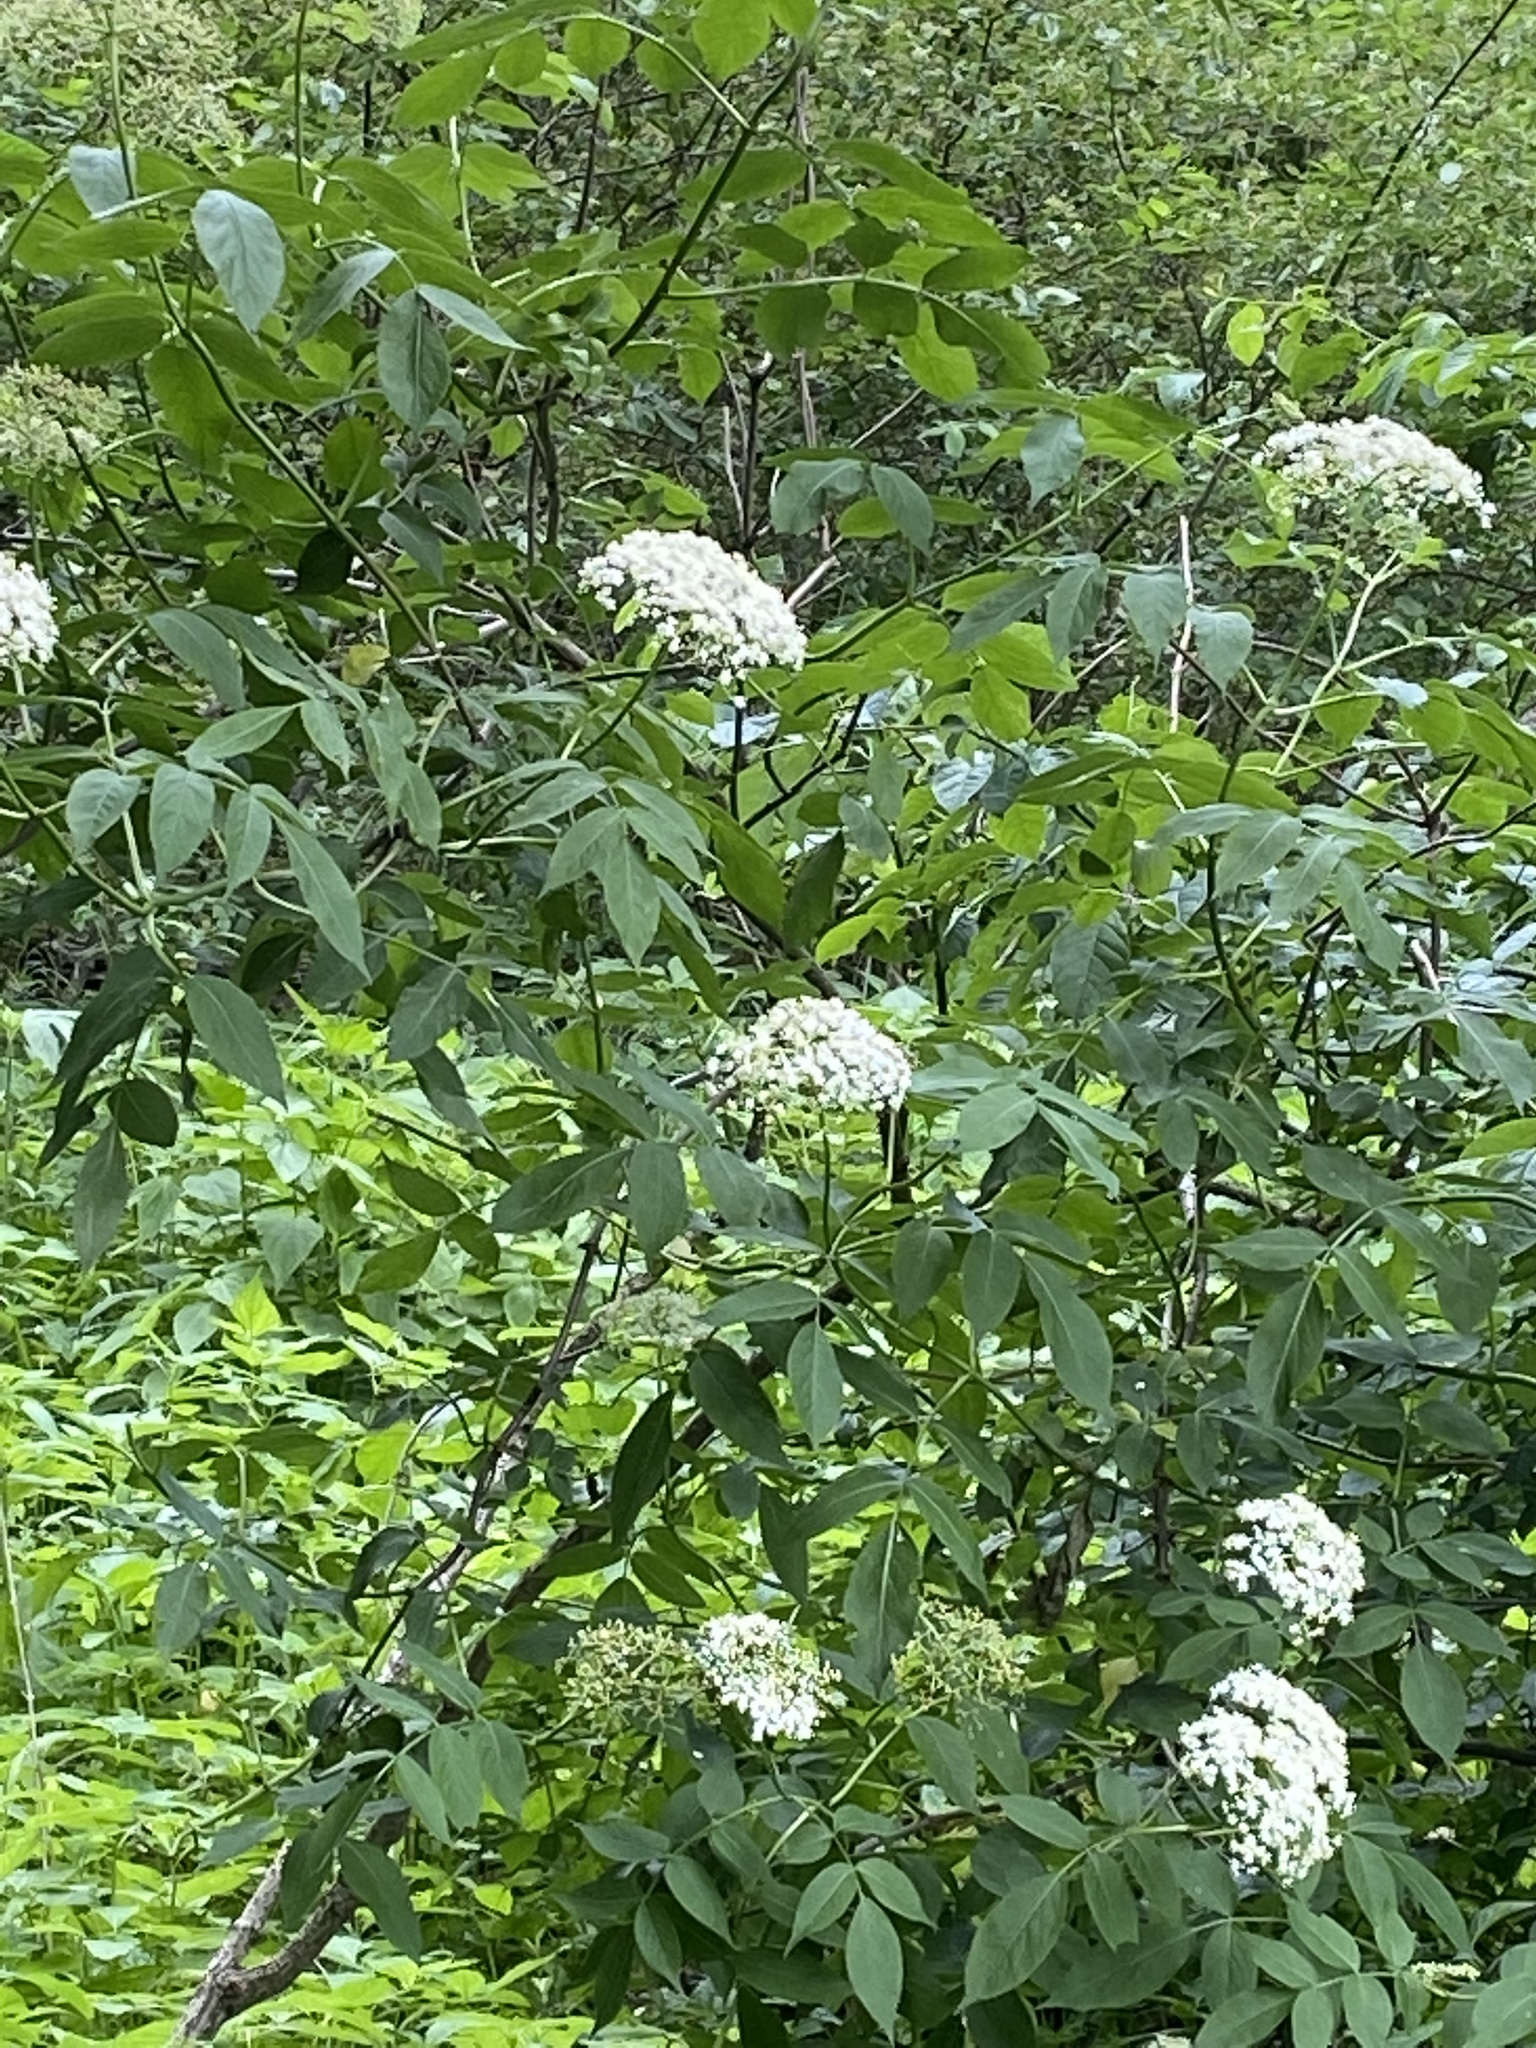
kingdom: Plantae
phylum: Tracheophyta
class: Magnoliopsida
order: Dipsacales
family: Viburnaceae
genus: Sambucus
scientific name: Sambucus canadensis
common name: American elder
